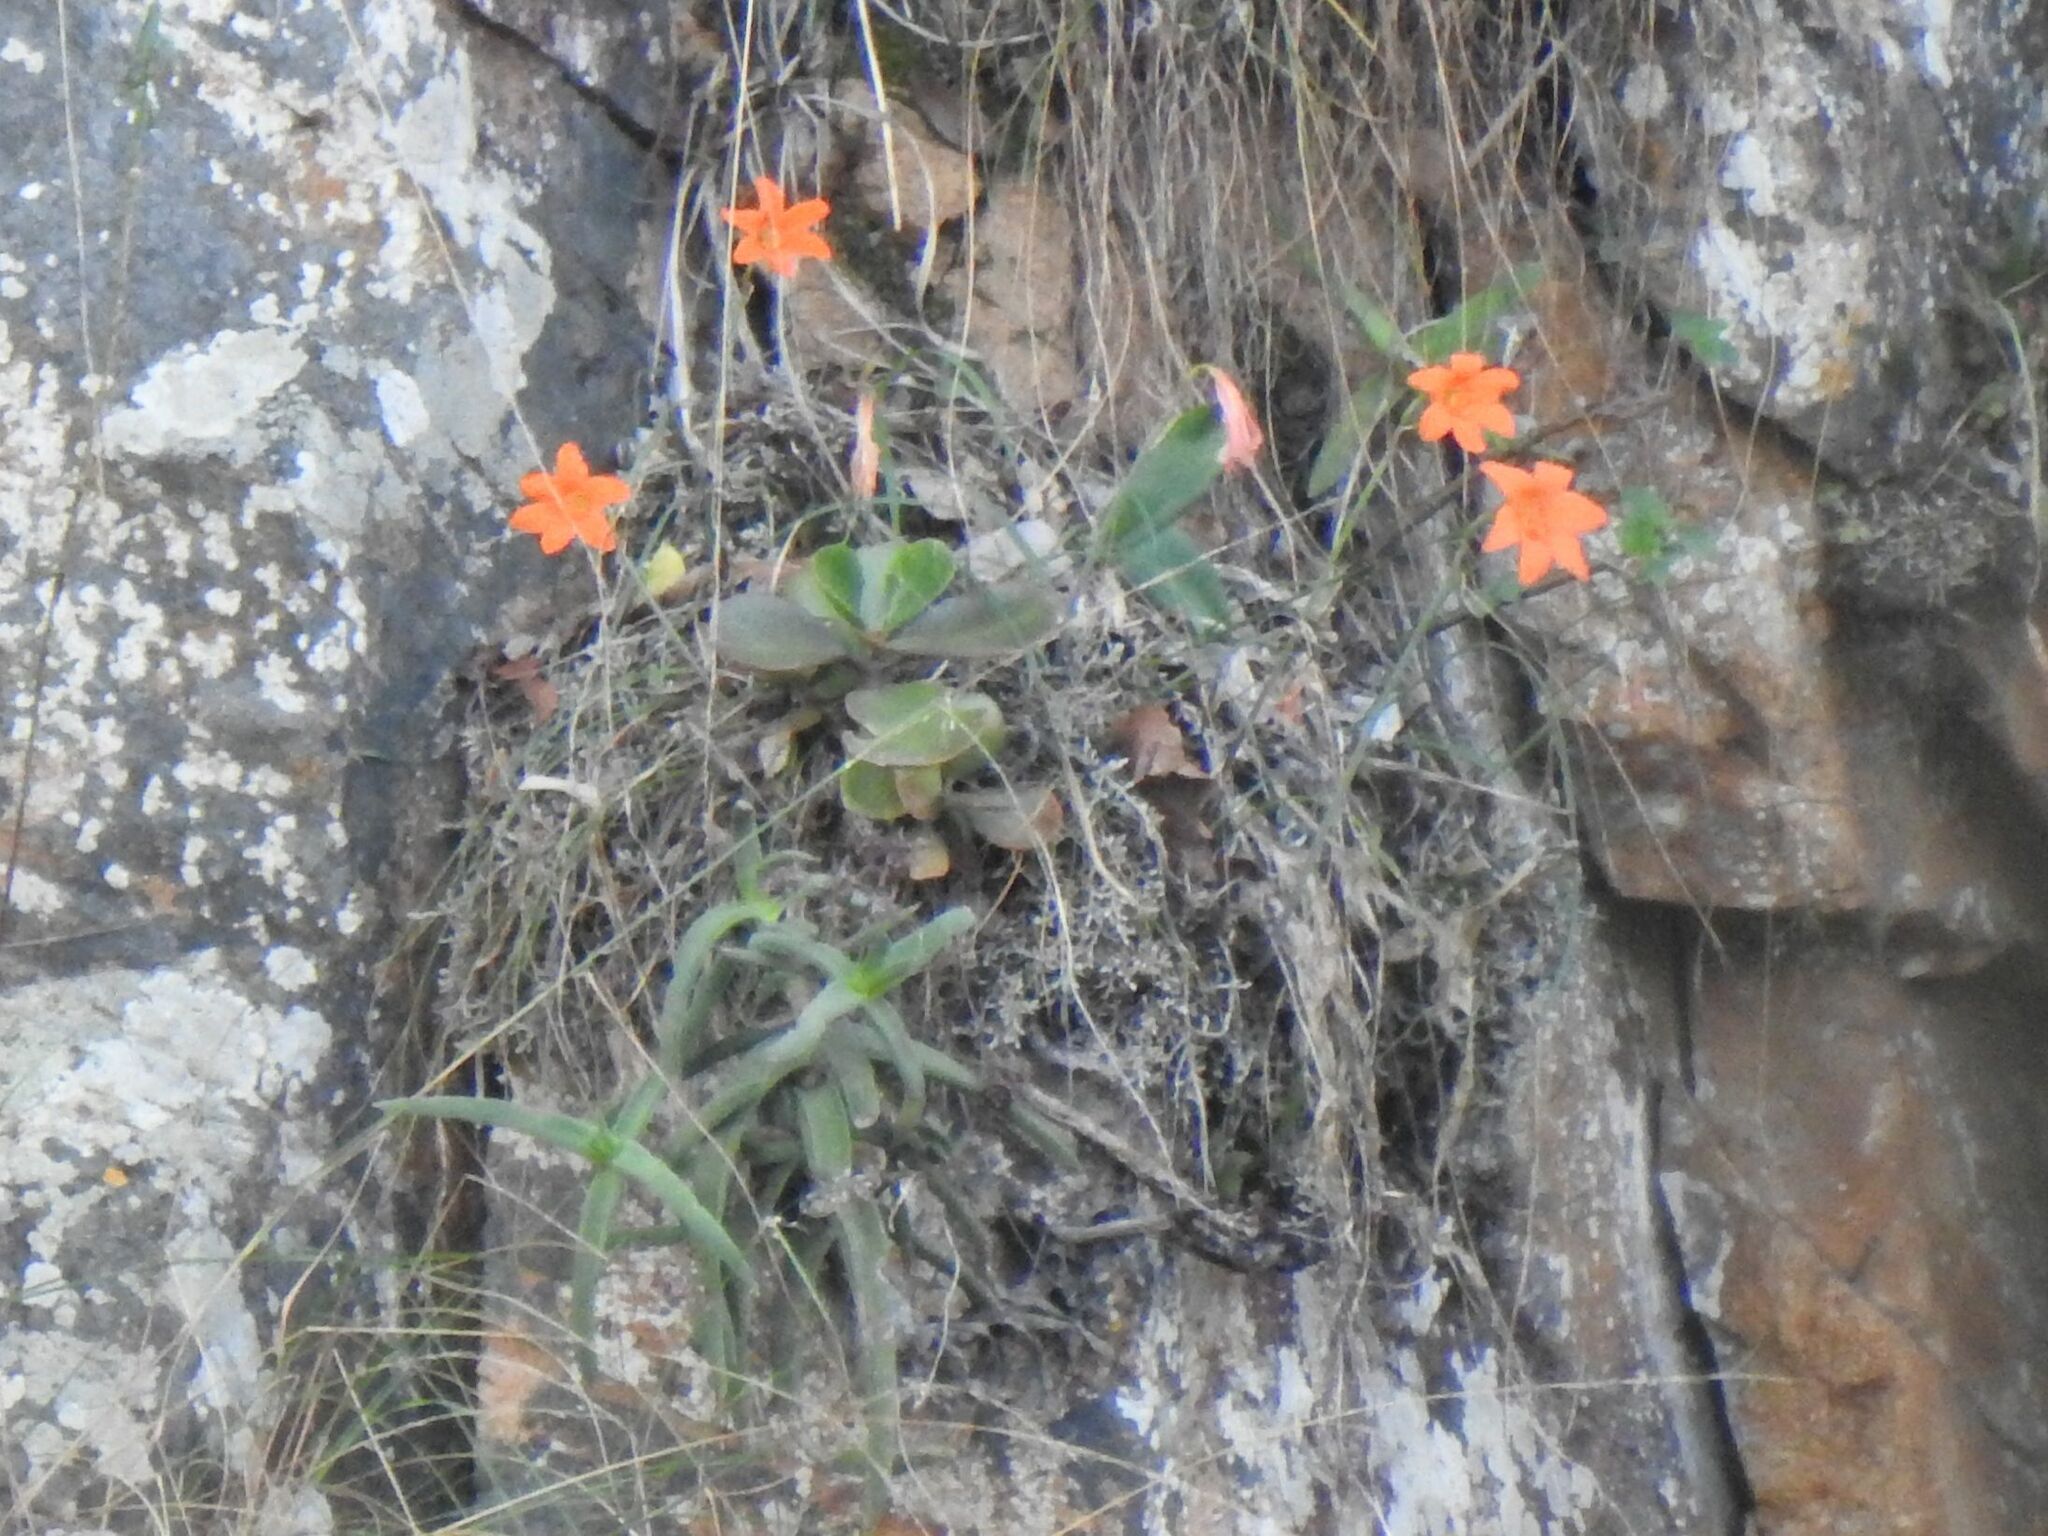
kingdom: Plantae
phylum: Tracheophyta
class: Liliopsida
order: Asparagales
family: Amaryllidaceae
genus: Cyrtanthus
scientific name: Cyrtanthus galpinii
